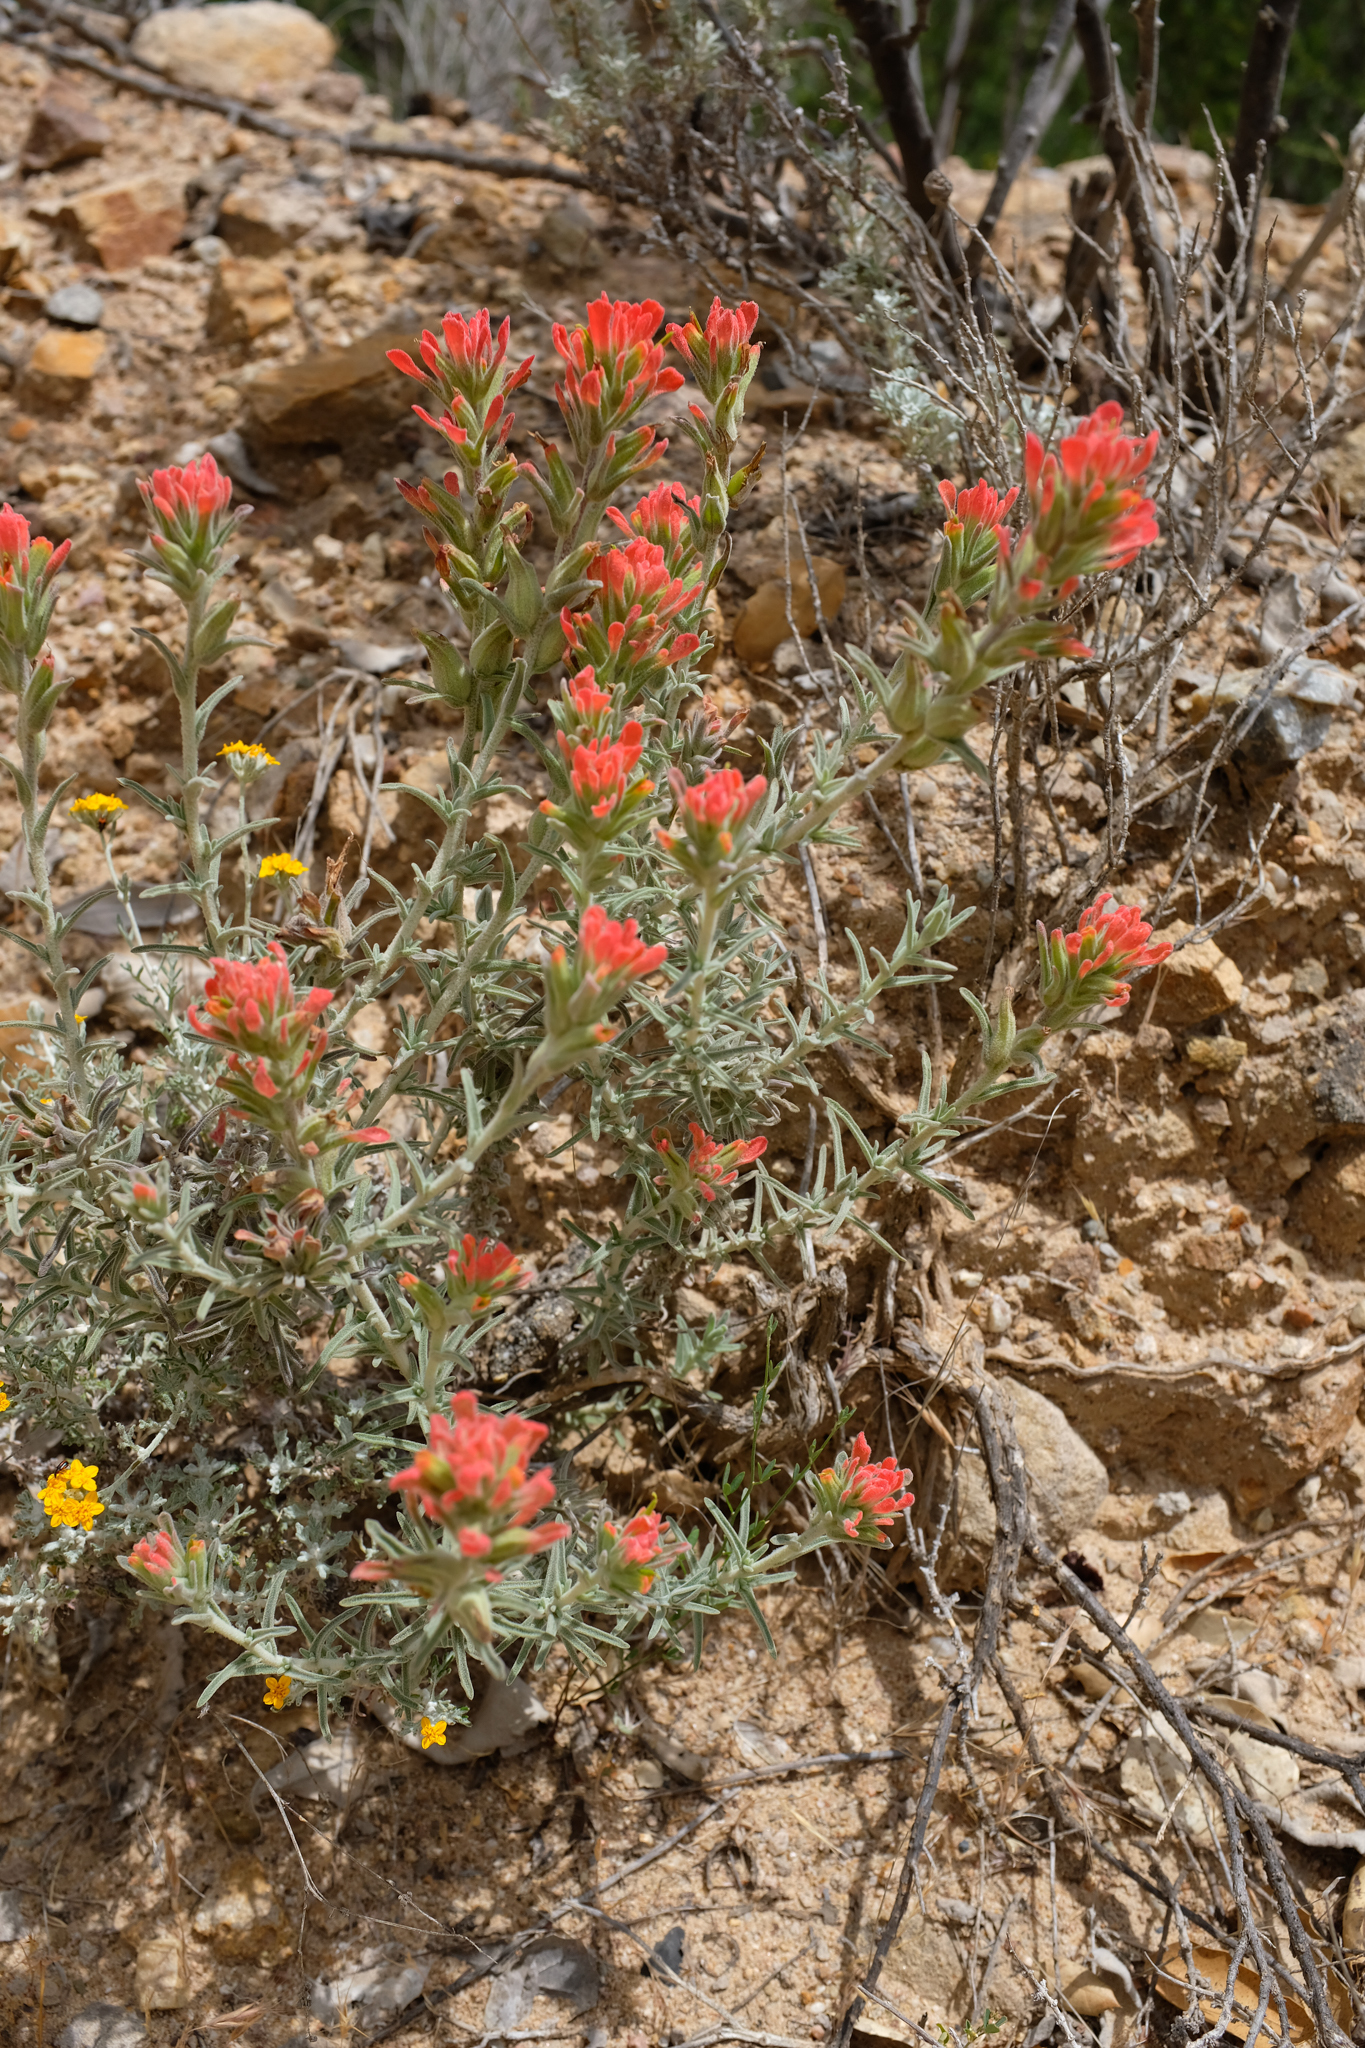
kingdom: Plantae
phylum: Tracheophyta
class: Magnoliopsida
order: Lamiales
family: Orobanchaceae
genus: Castilleja
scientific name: Castilleja foliolosa
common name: Woolly indian paintbrush
